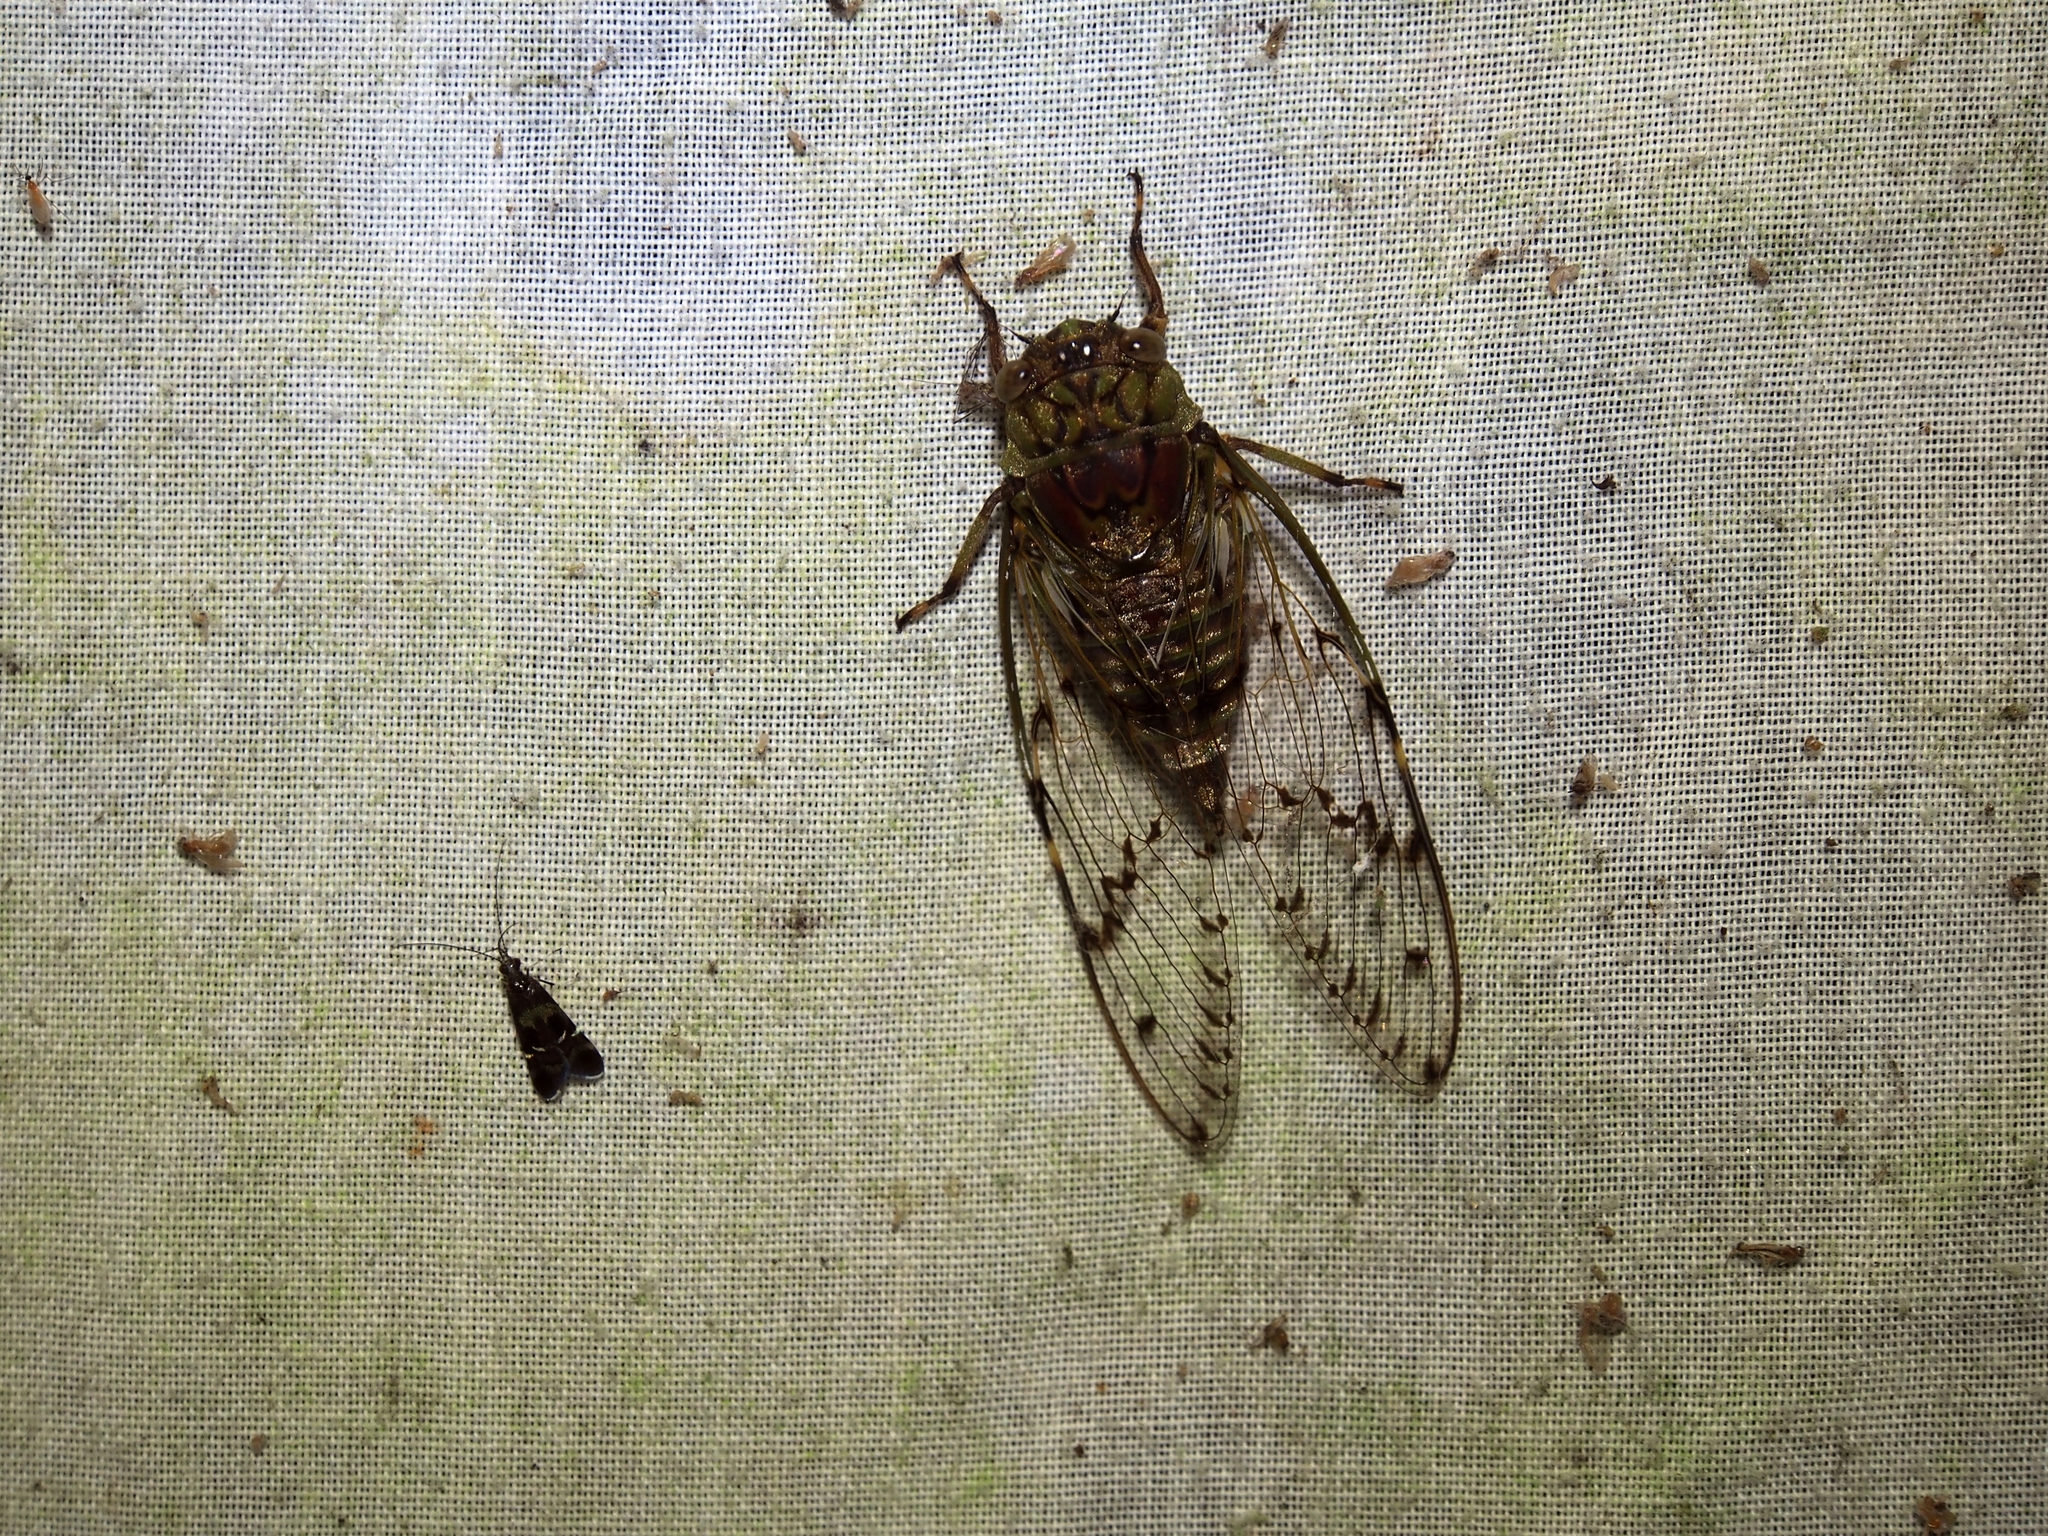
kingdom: Animalia
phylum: Arthropoda
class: Insecta
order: Hemiptera
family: Cicadidae
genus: Proarna
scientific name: Proarna sallei
